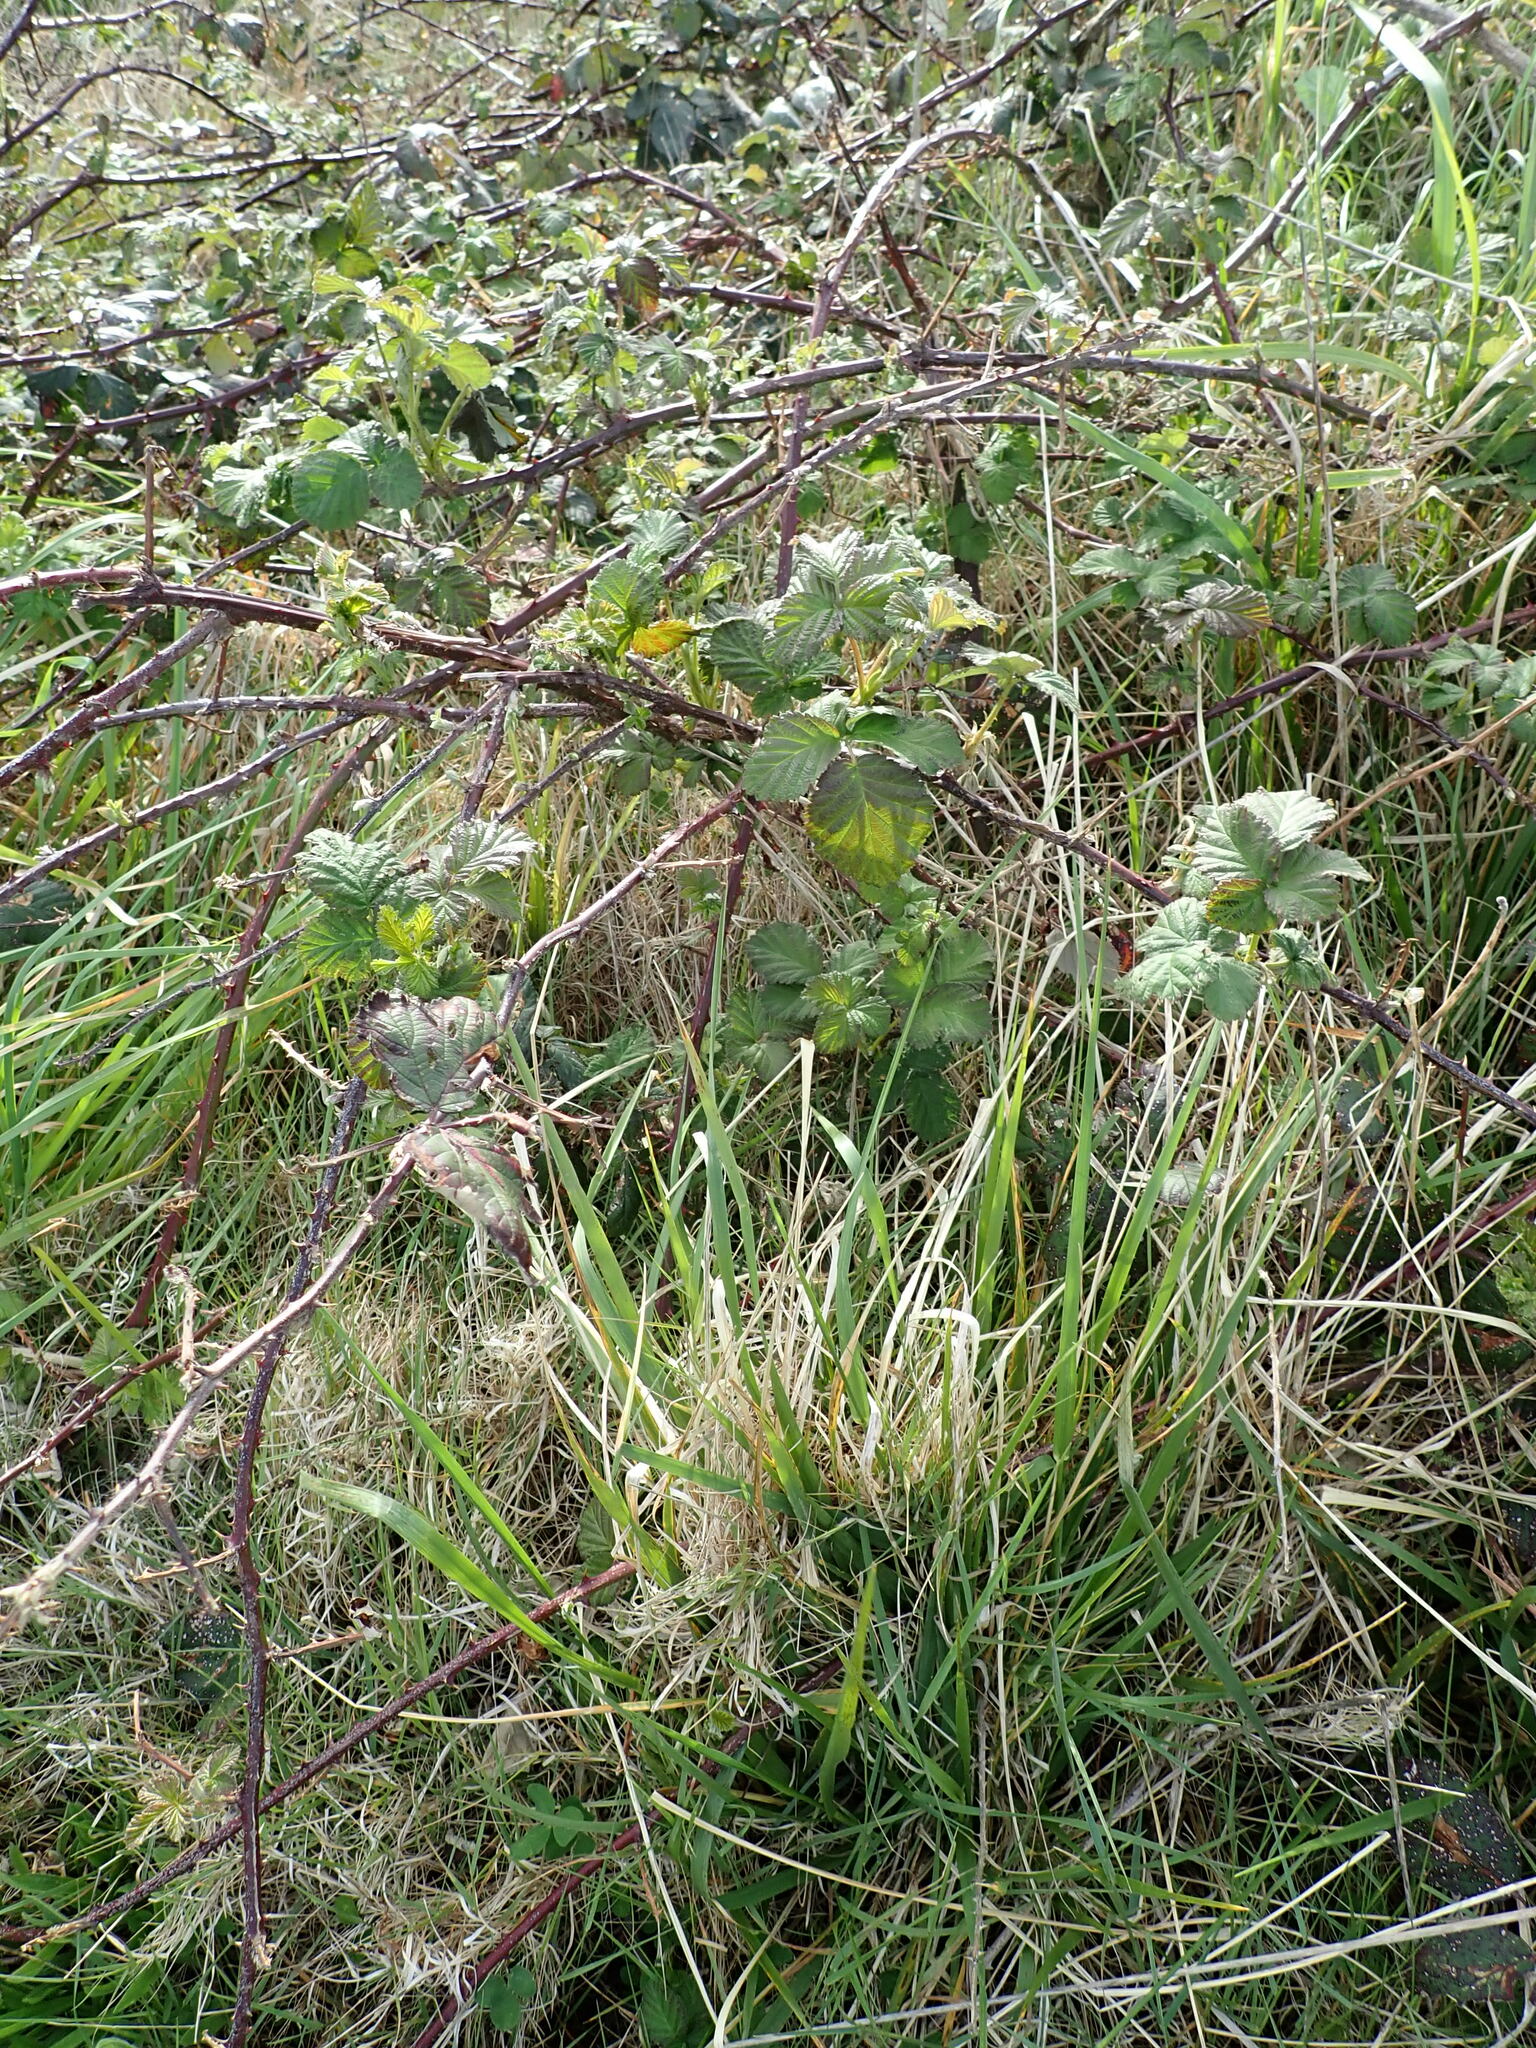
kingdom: Plantae
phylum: Tracheophyta
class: Magnoliopsida
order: Rosales
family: Rosaceae
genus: Rubus
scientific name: Rubus fruticosus
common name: Blackberry, bramble
